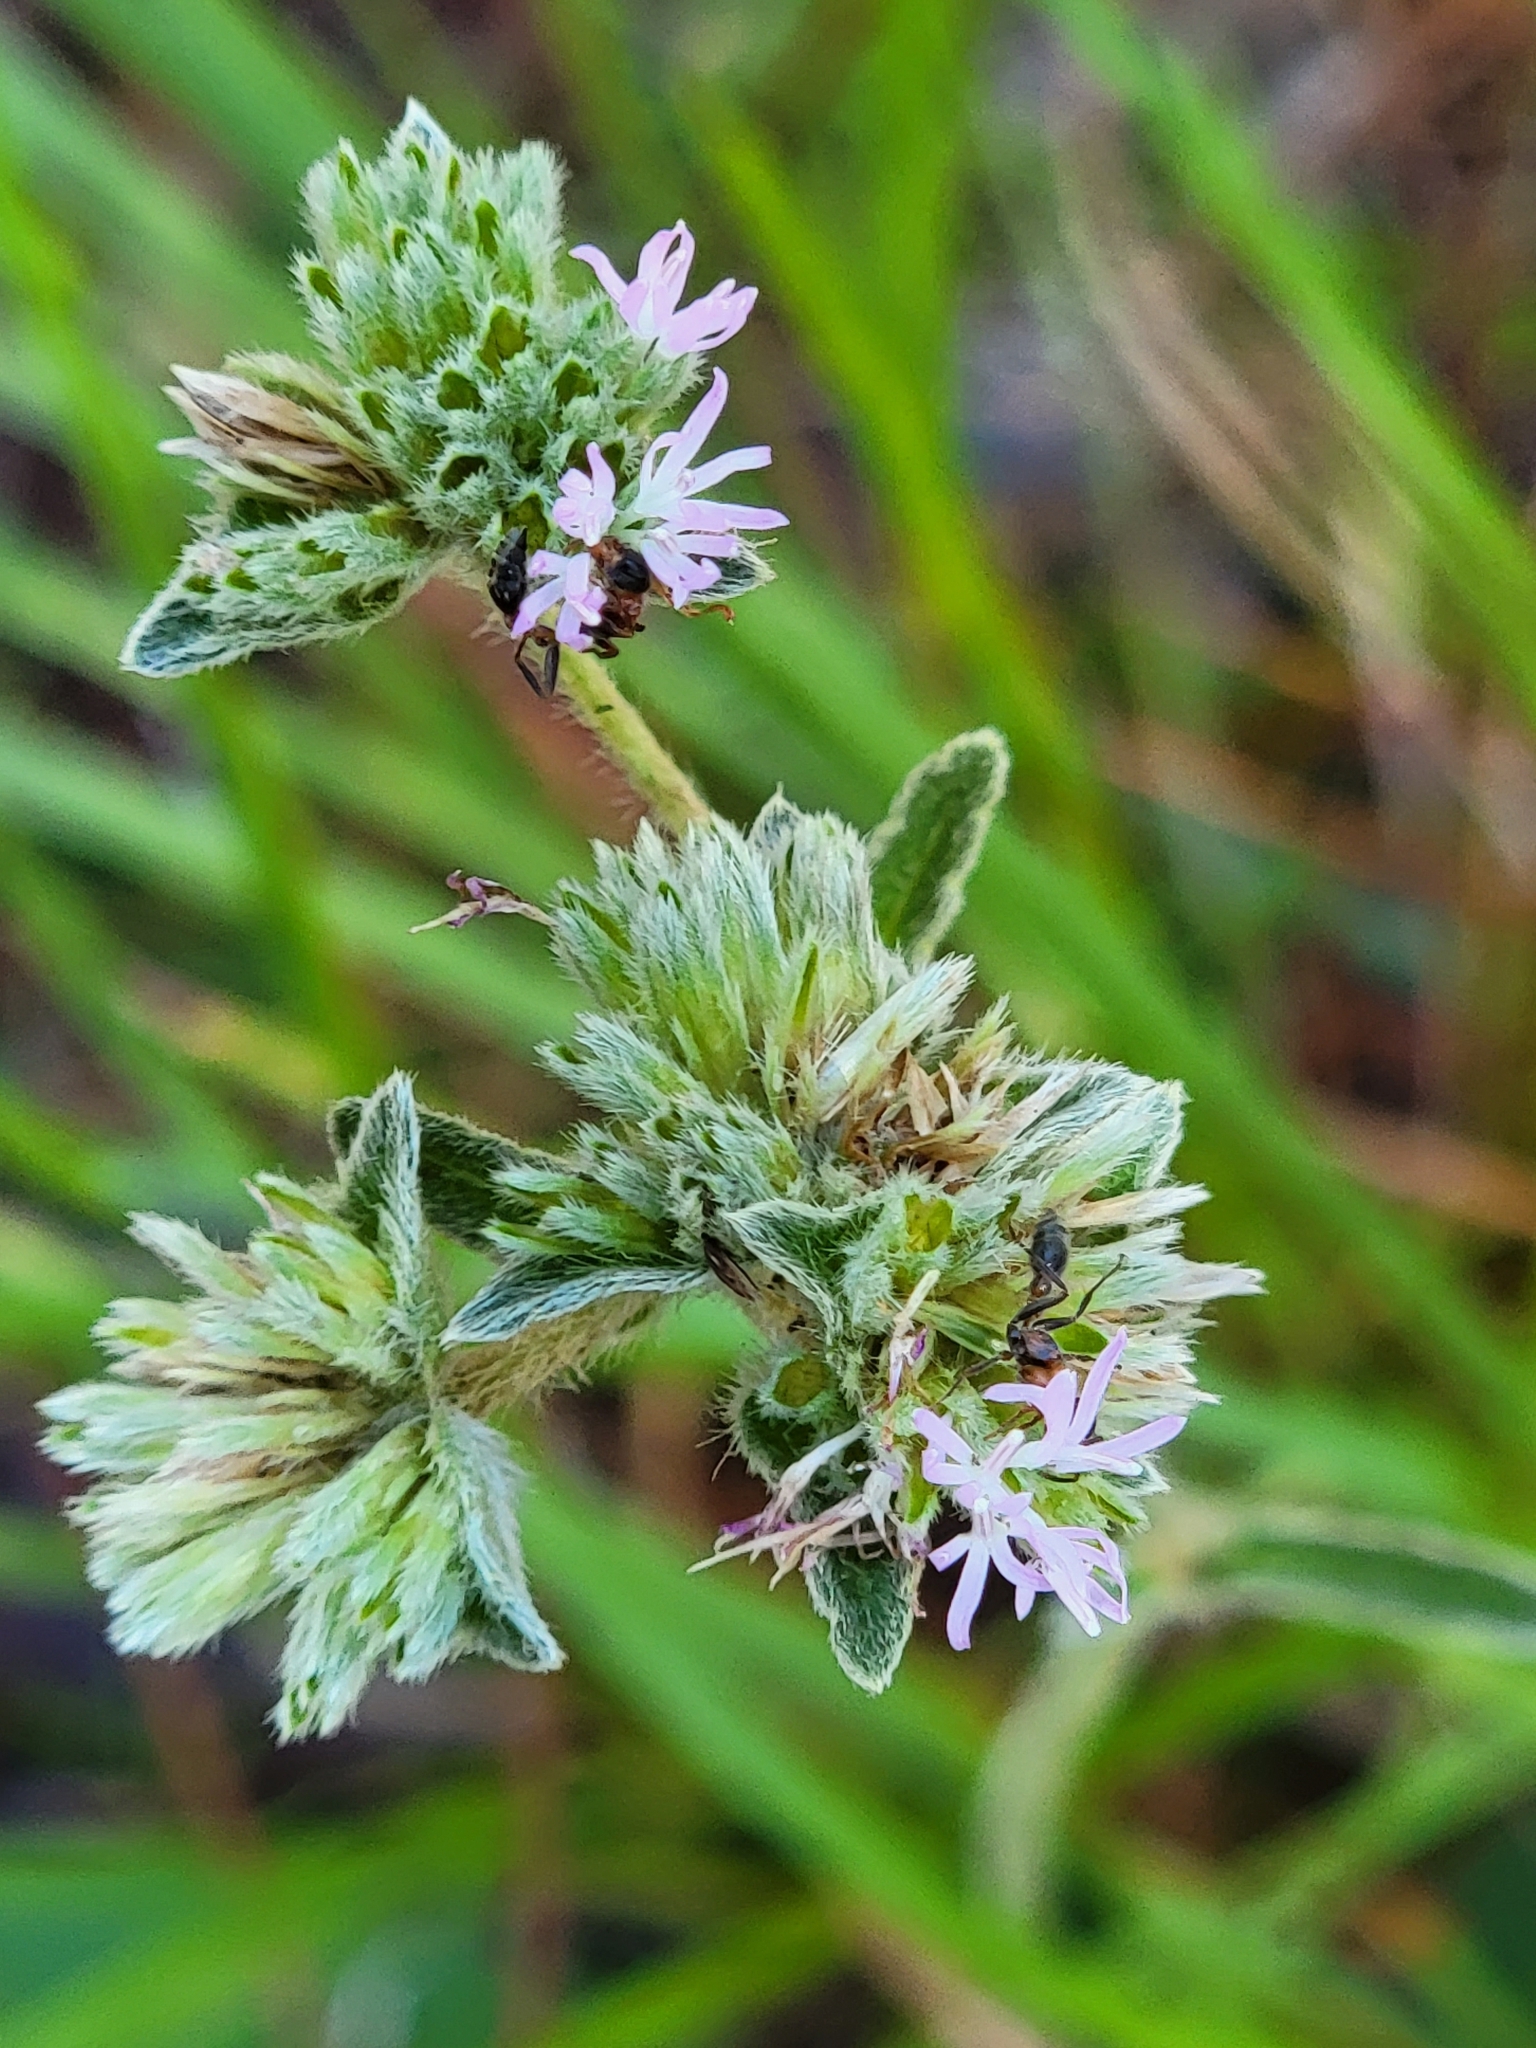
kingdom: Plantae
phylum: Tracheophyta
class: Magnoliopsida
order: Asterales
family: Asteraceae
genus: Elephantopus
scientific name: Elephantopus elatus
